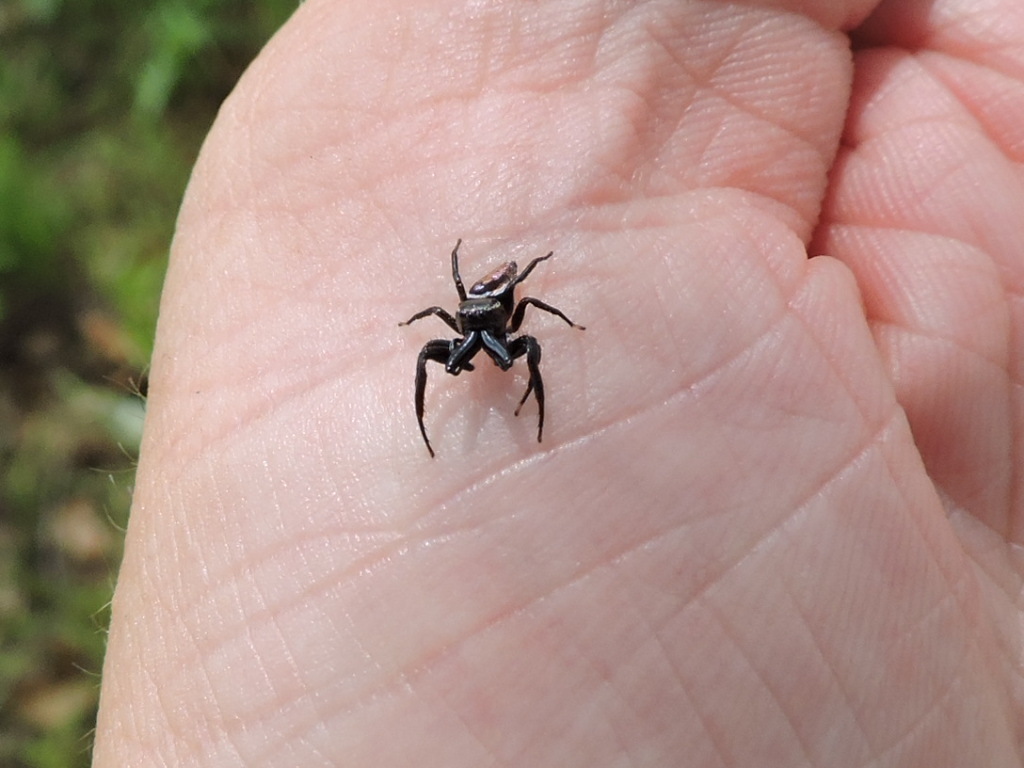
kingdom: Animalia
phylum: Arthropoda
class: Arachnida
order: Araneae
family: Salticidae
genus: Messua
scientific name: Messua limbata
